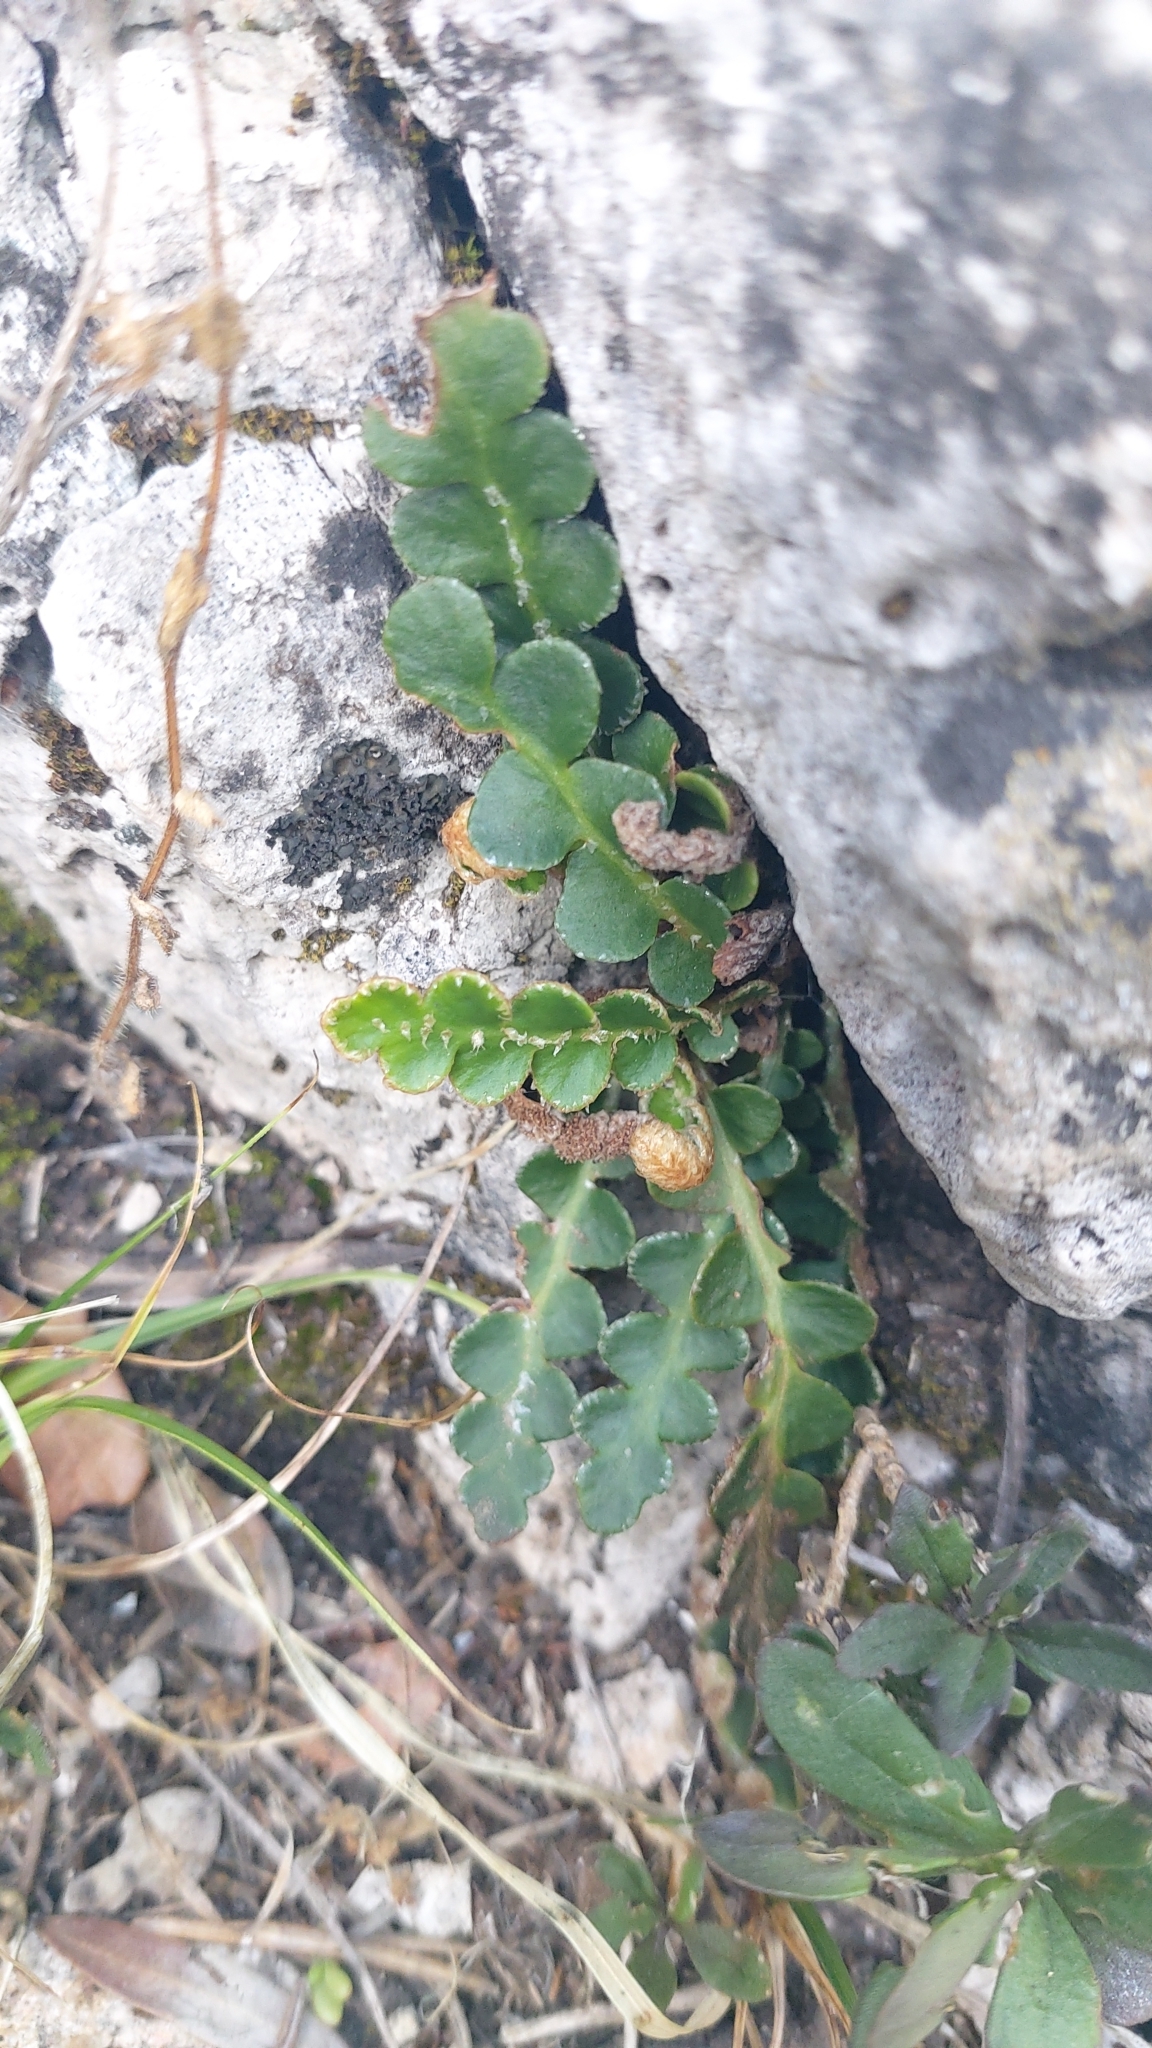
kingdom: Plantae
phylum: Tracheophyta
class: Polypodiopsida
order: Polypodiales
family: Aspleniaceae
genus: Asplenium
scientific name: Asplenium ceterach
